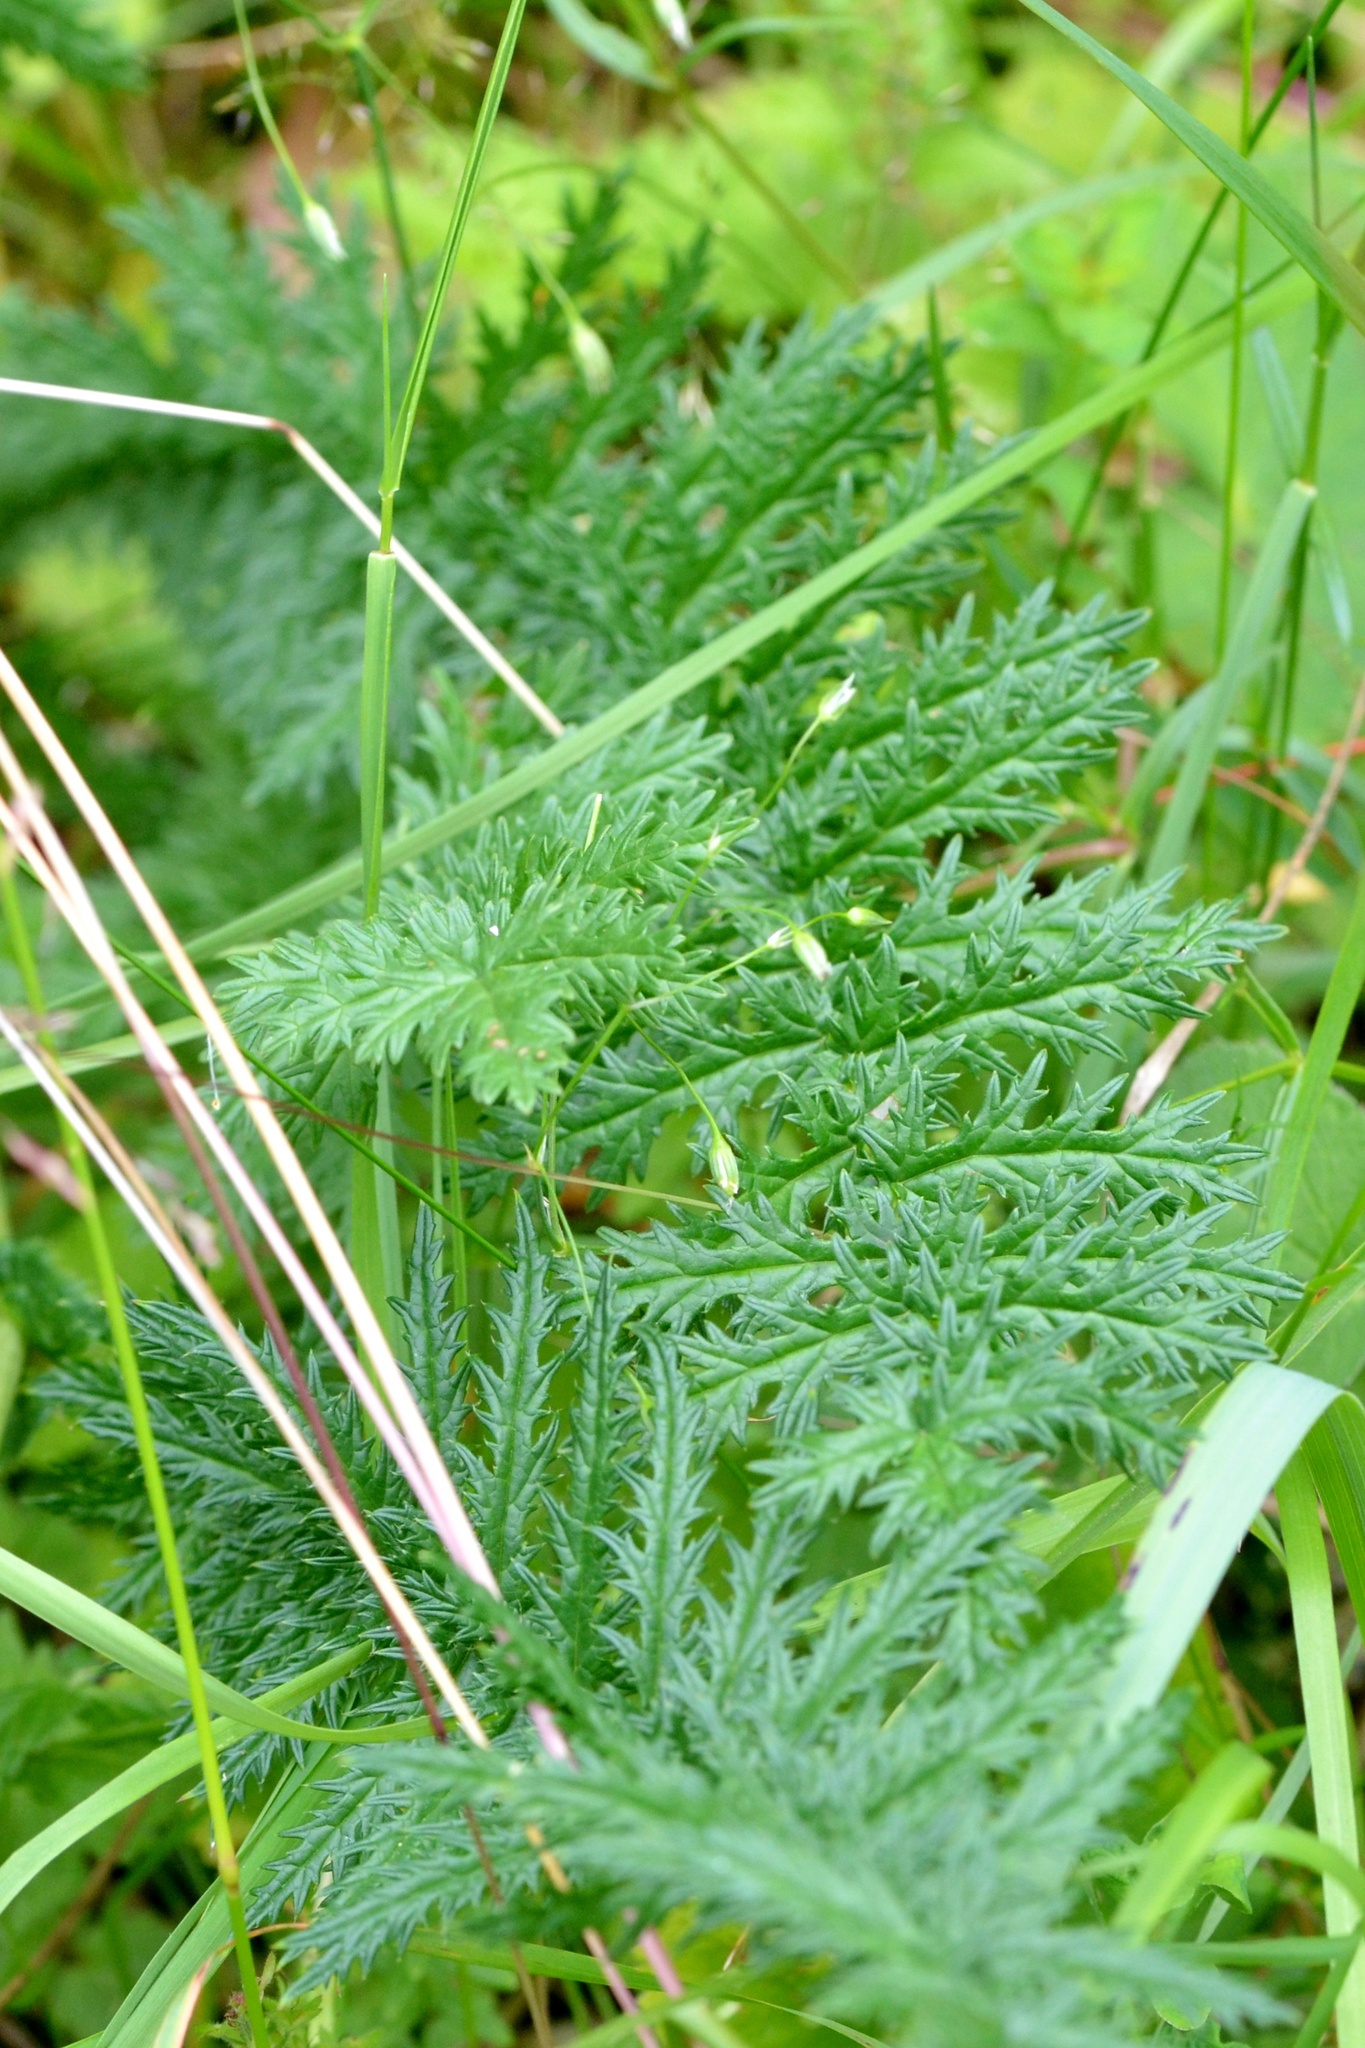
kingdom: Plantae
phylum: Tracheophyta
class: Magnoliopsida
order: Rosales
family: Rosaceae
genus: Filipendula
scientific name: Filipendula vulgaris
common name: Dropwort
